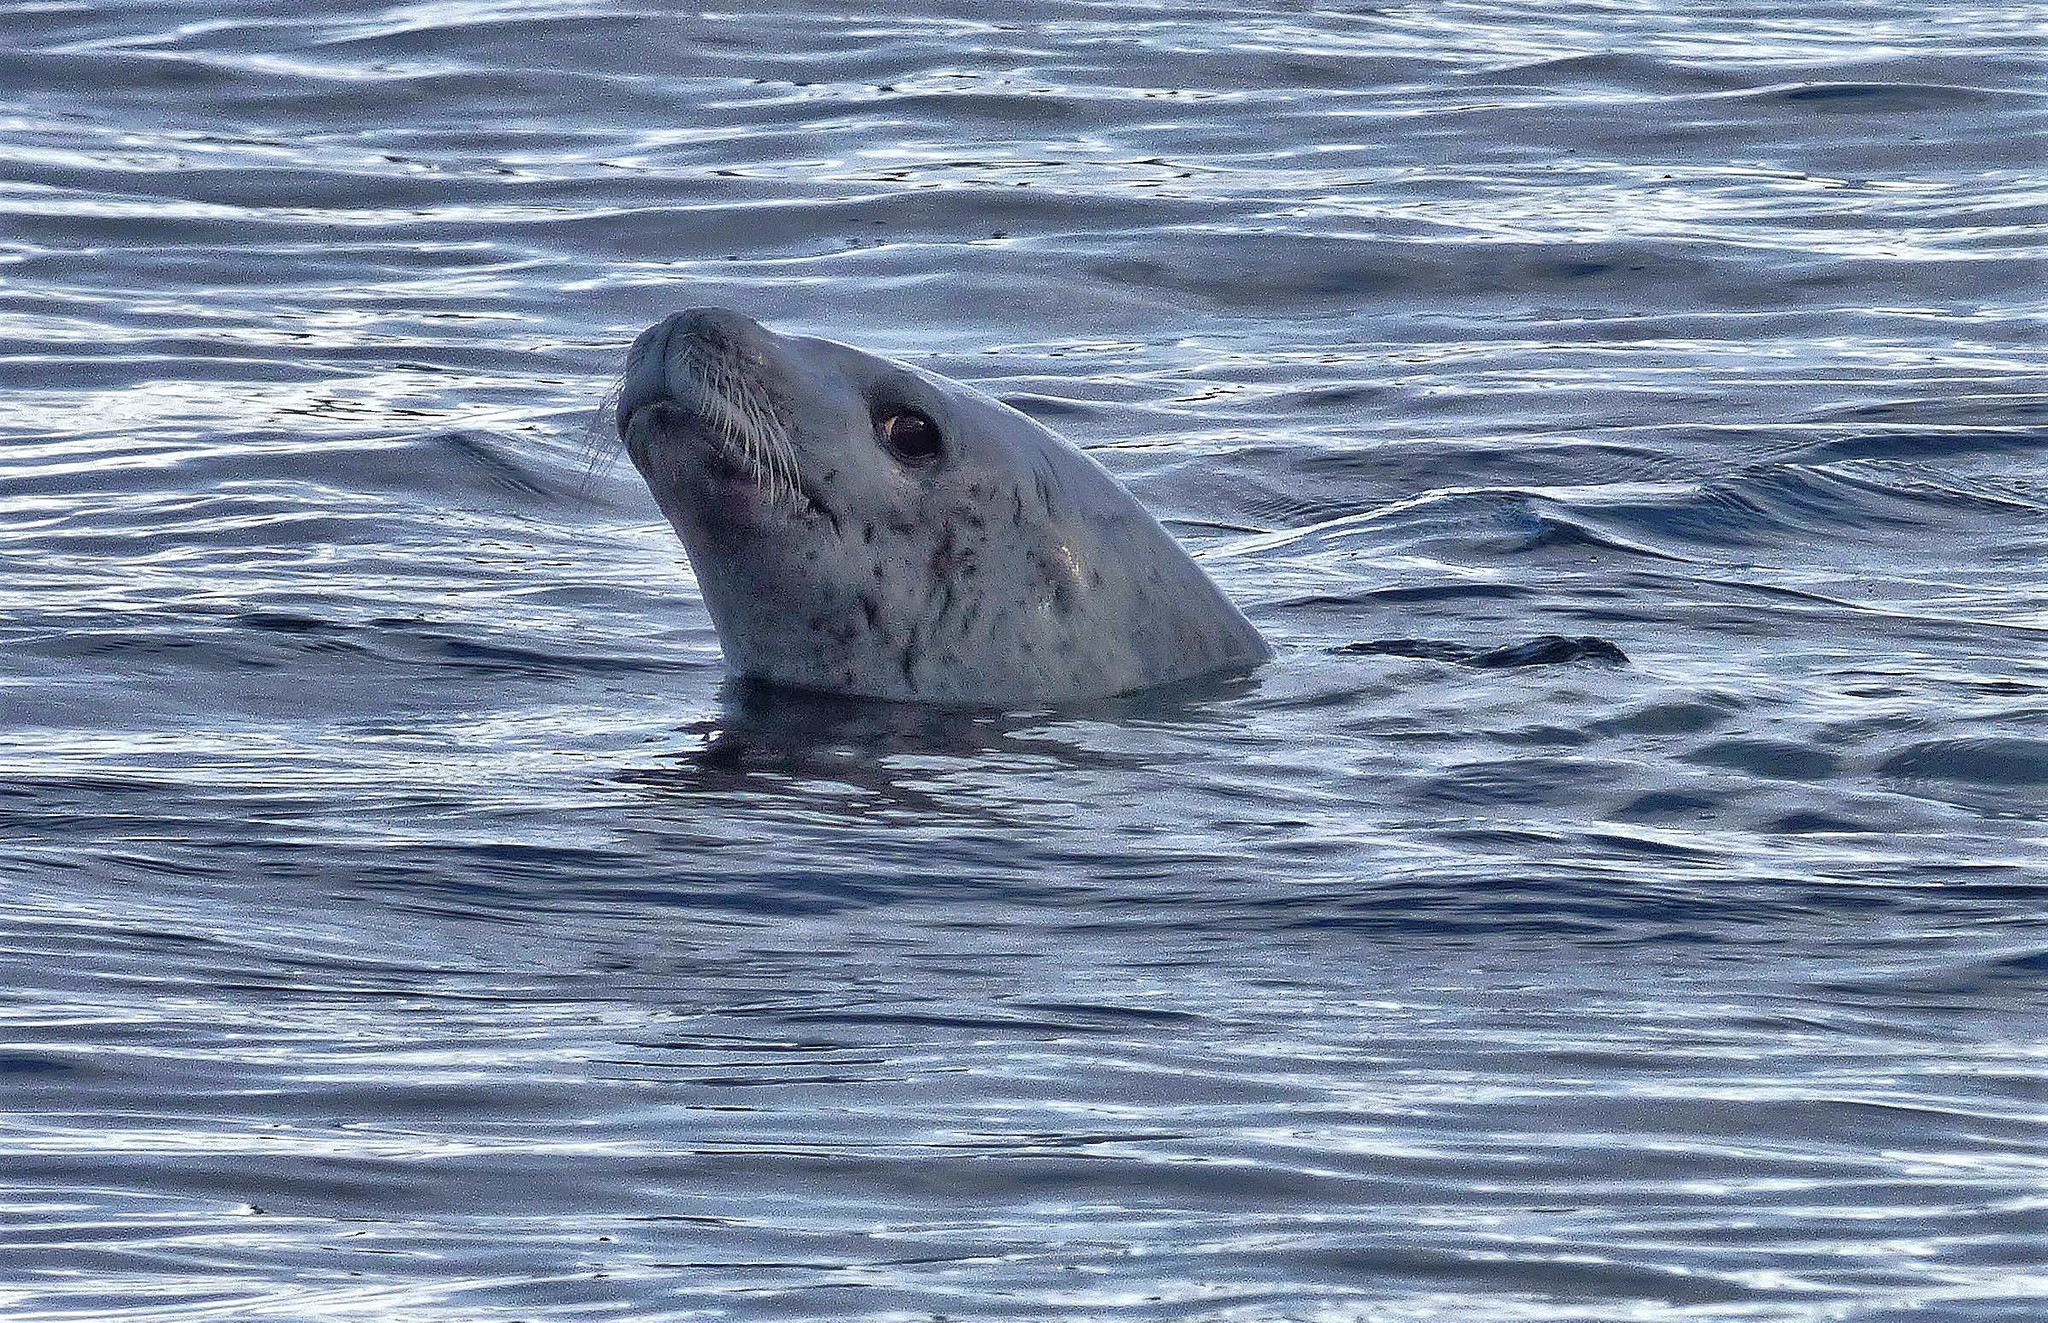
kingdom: Animalia
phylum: Chordata
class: Mammalia
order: Carnivora
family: Phocidae
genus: Lobodon
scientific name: Lobodon carcinophaga
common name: Crabeater seal
